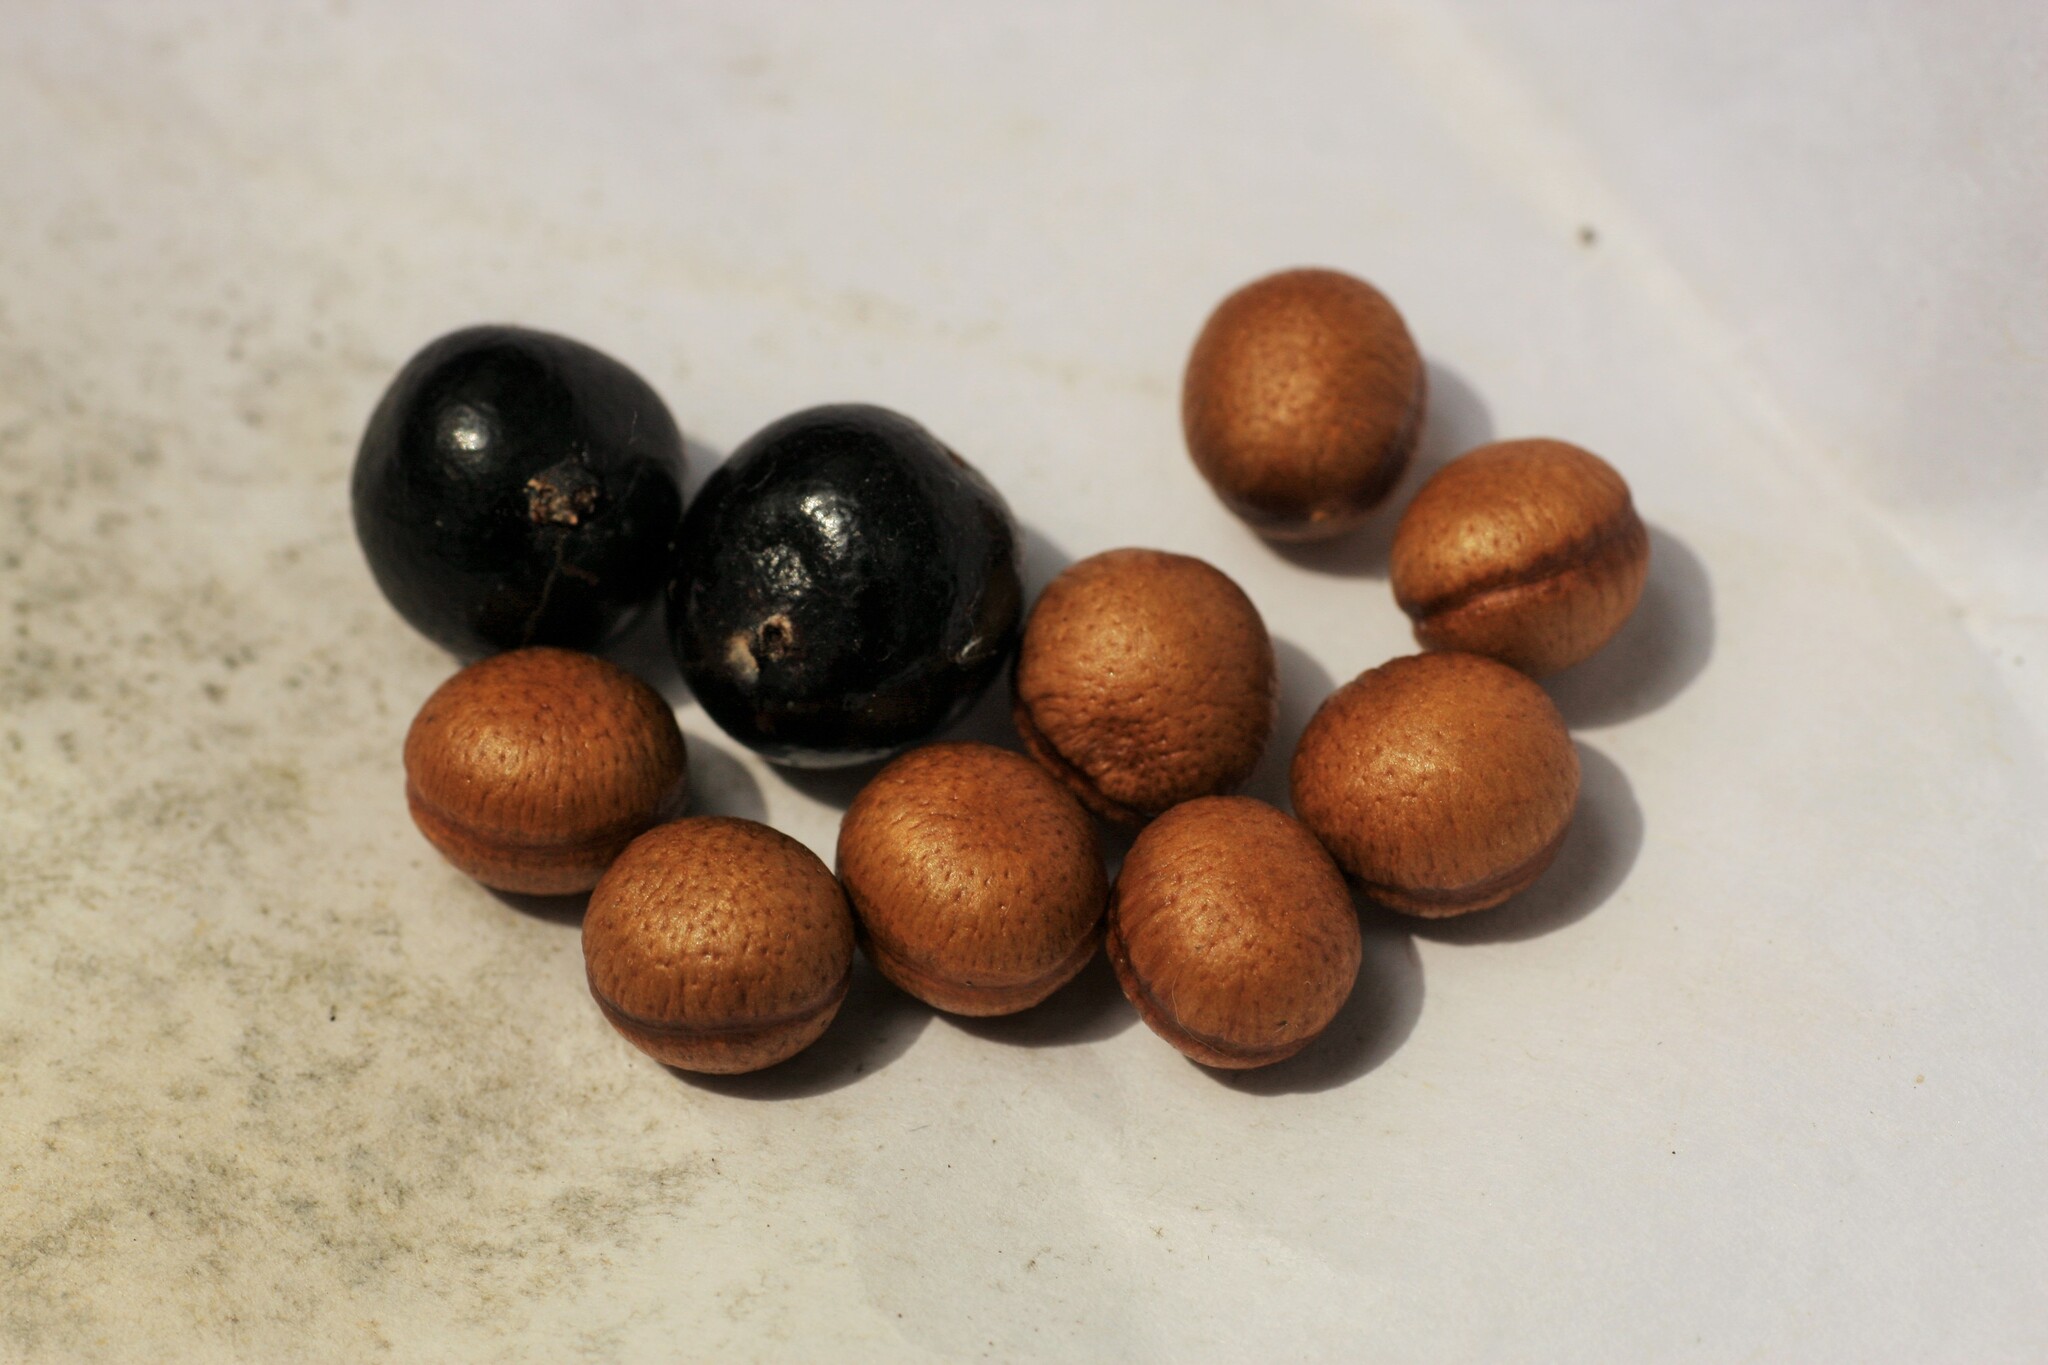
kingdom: Plantae
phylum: Tracheophyta
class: Magnoliopsida
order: Magnoliales
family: Annonaceae
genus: Orophea
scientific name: Orophea thomsonii
